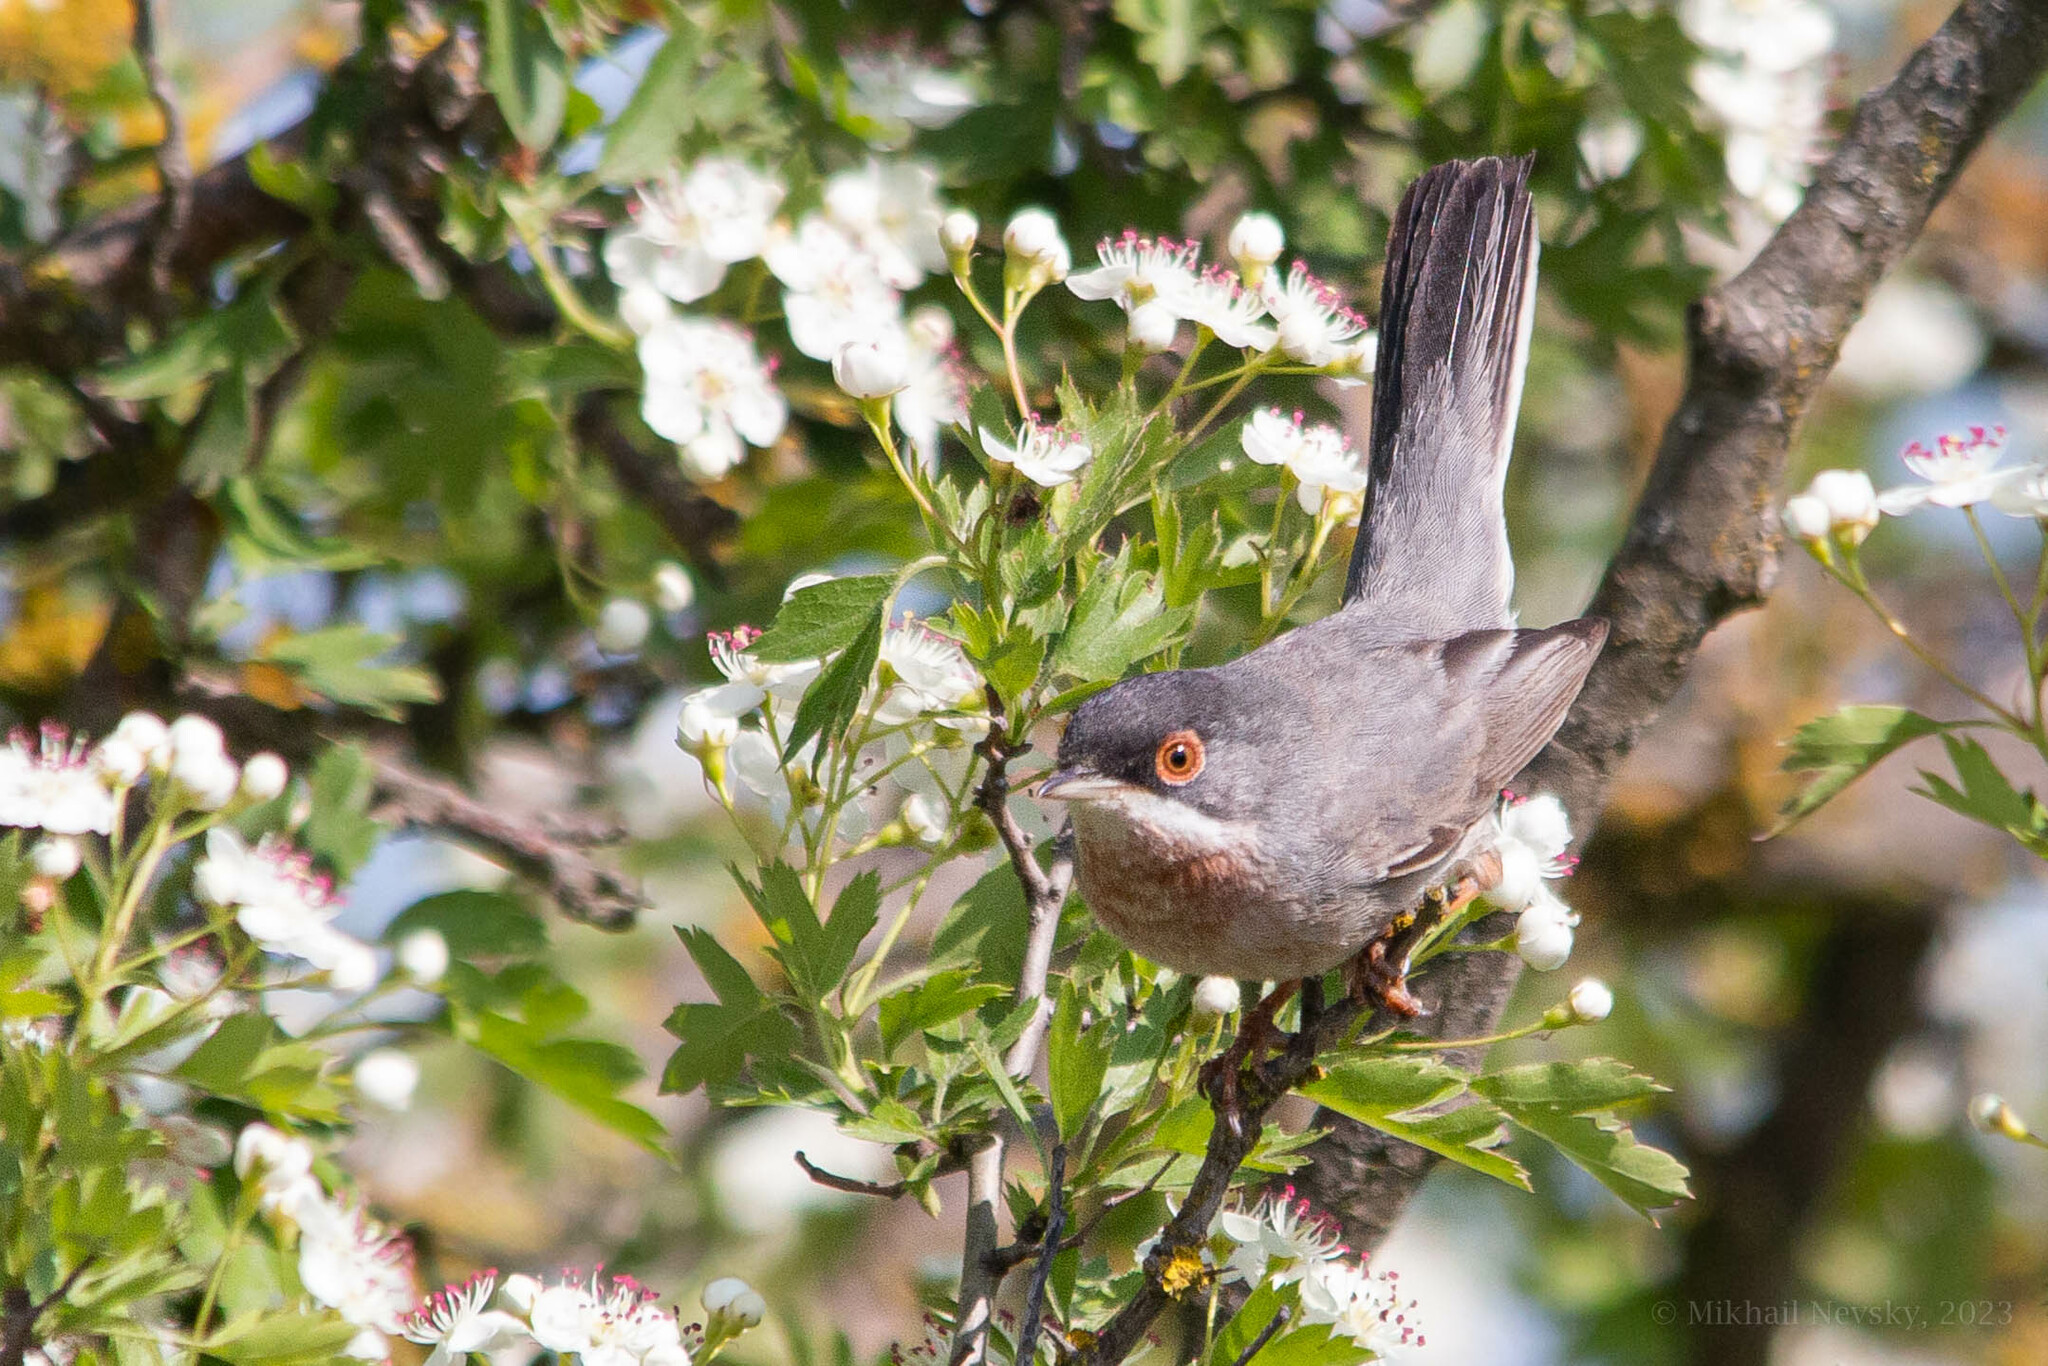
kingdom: Animalia
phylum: Chordata
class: Aves
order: Passeriformes
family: Sylviidae
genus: Sylvia
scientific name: Sylvia mystacea
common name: Menetries's warbler
